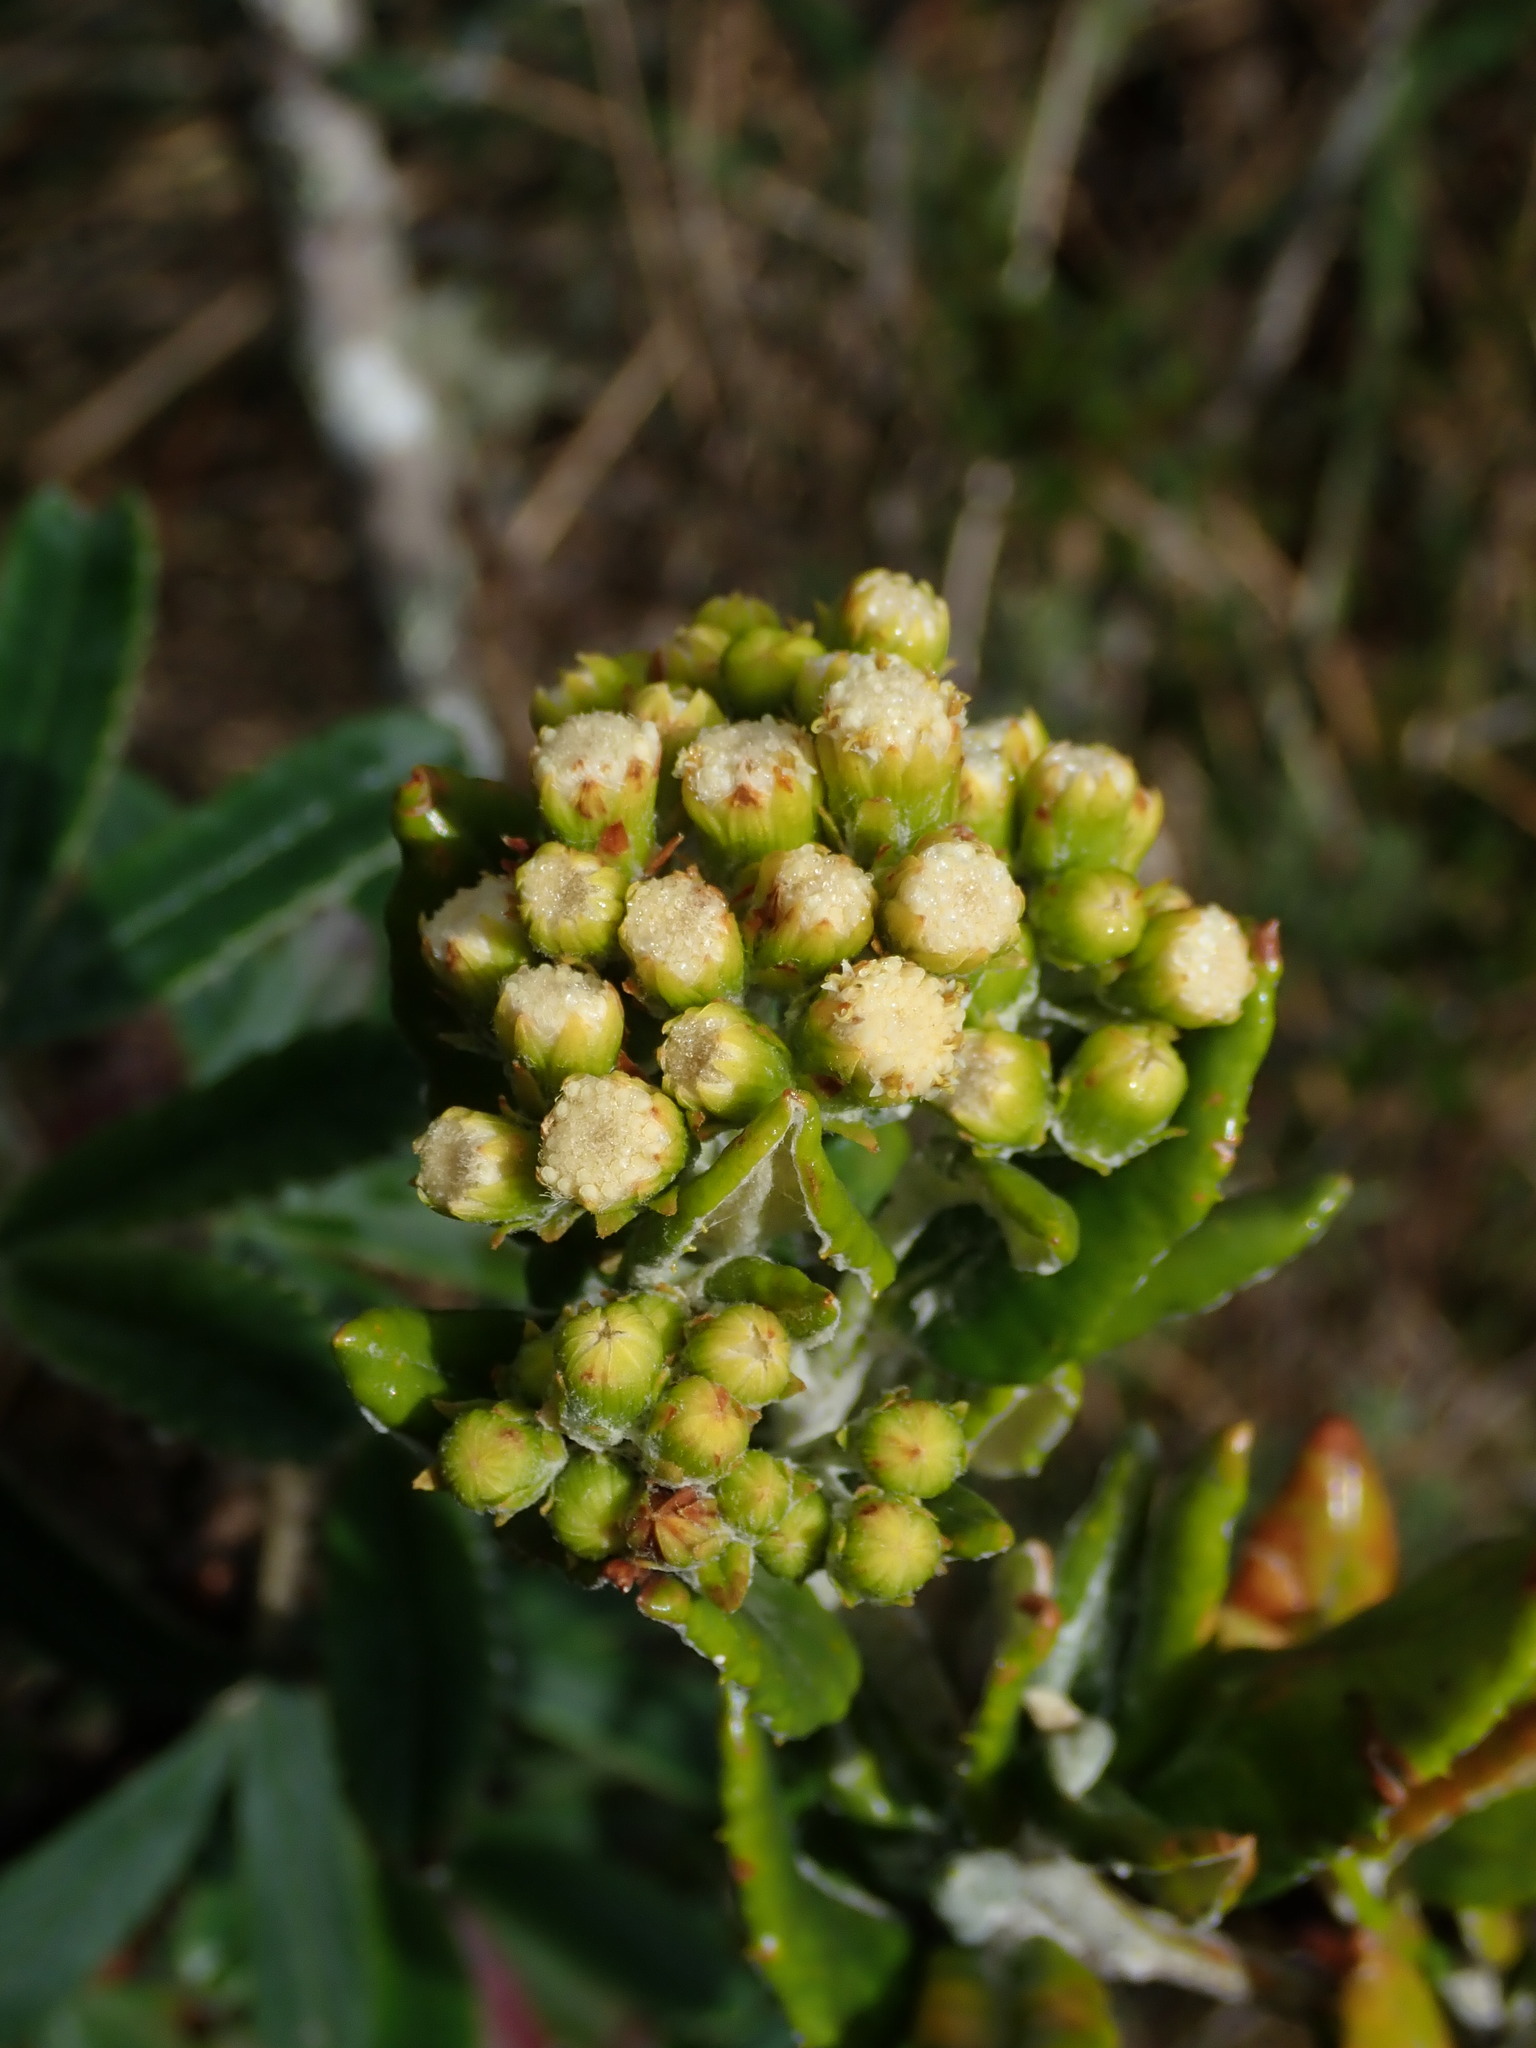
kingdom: Plantae
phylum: Tracheophyta
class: Magnoliopsida
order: Asterales
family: Asteraceae
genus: Monticalia
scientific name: Monticalia andicola
